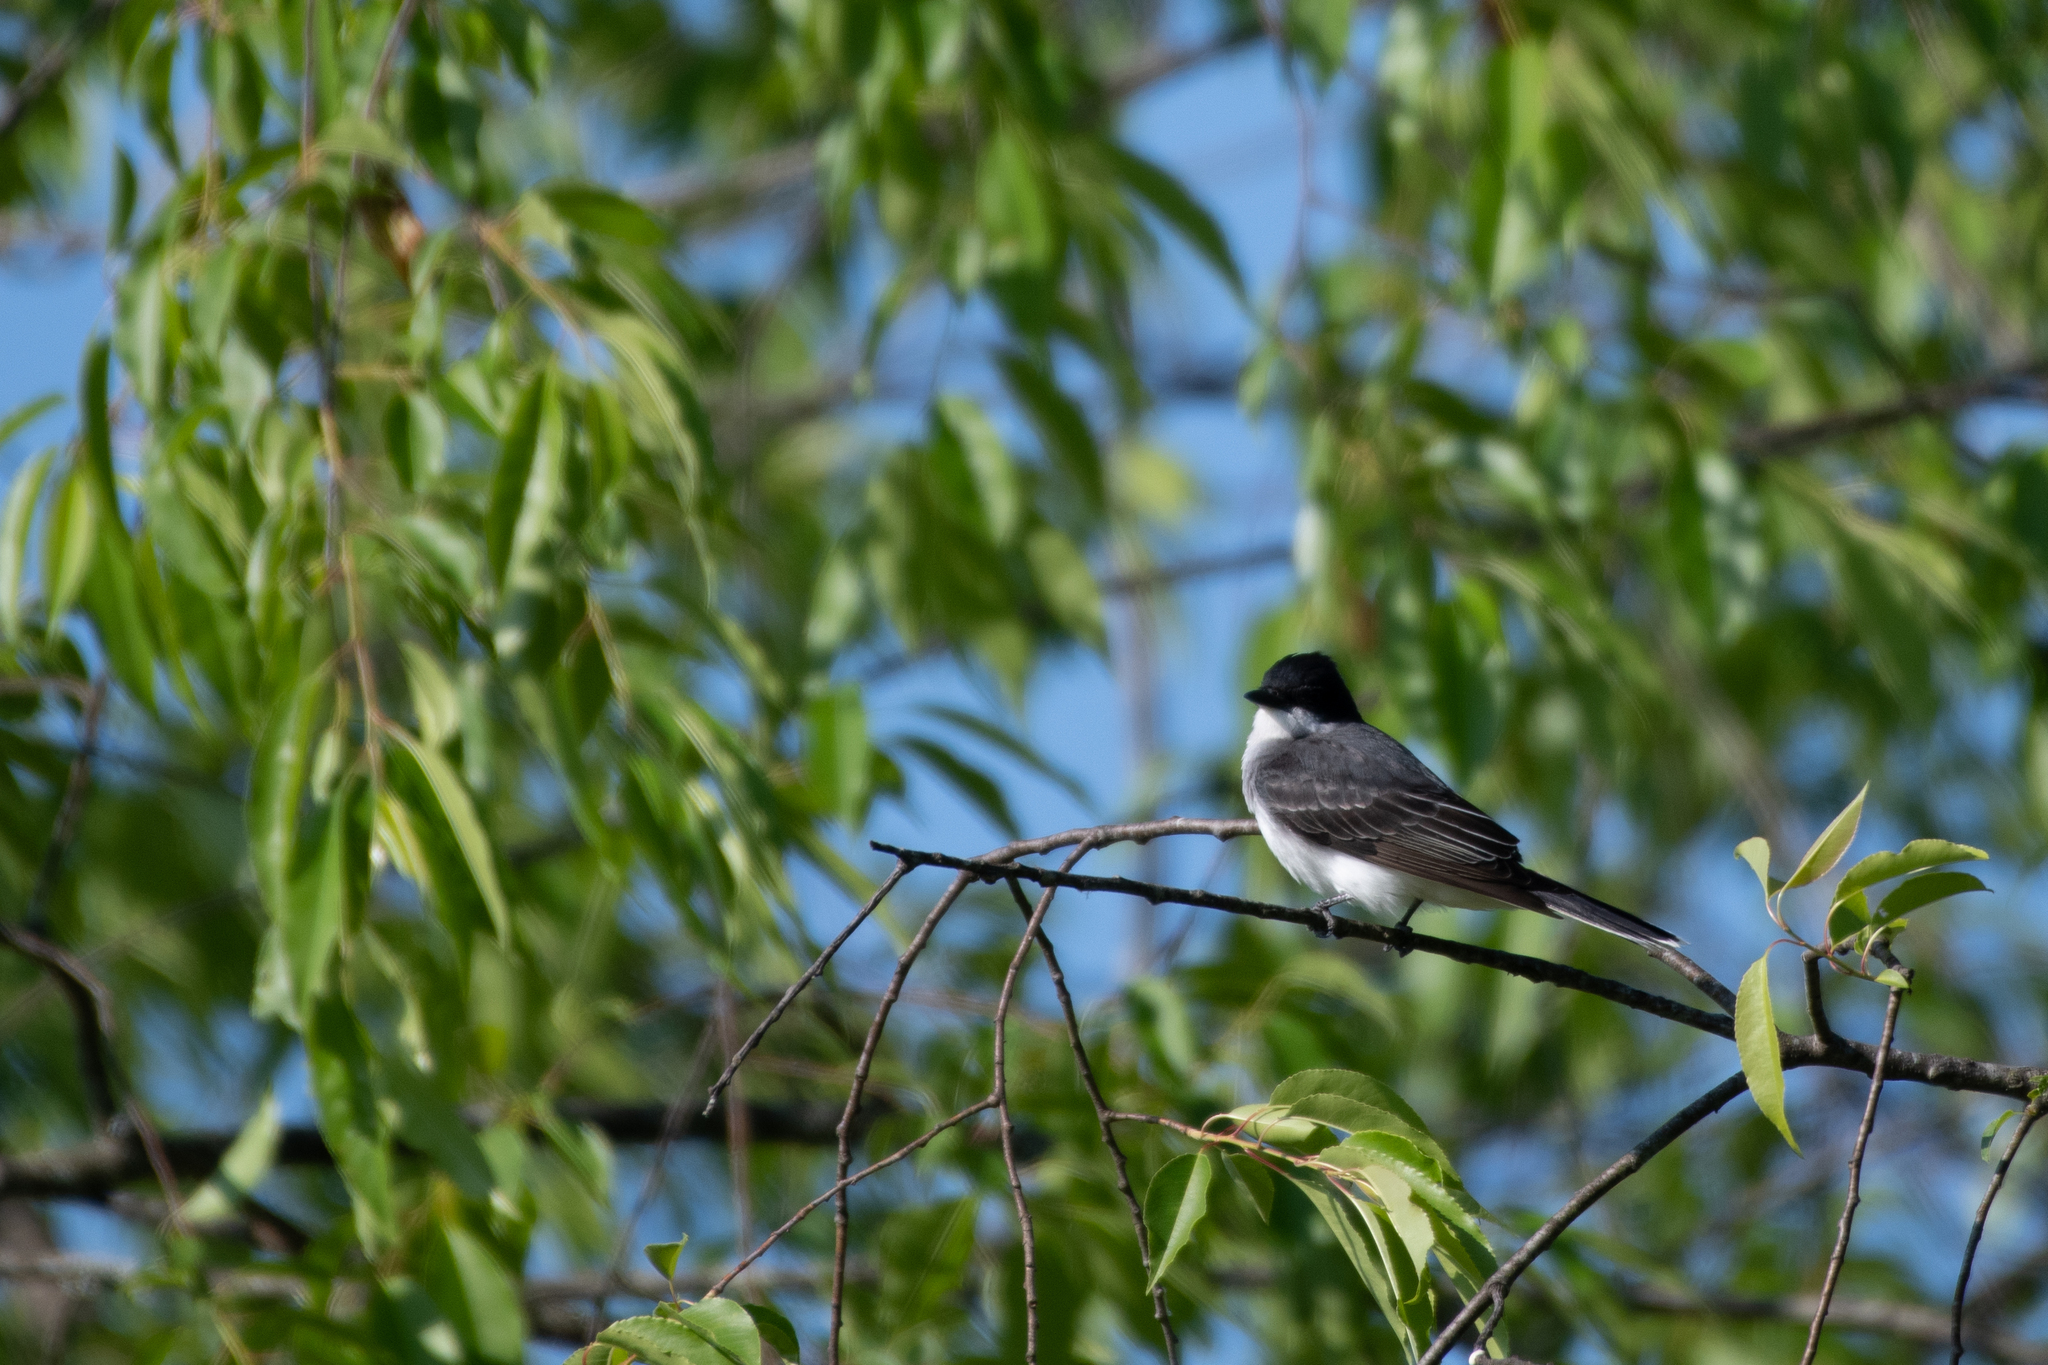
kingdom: Animalia
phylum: Chordata
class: Aves
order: Passeriformes
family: Tyrannidae
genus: Tyrannus
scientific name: Tyrannus tyrannus
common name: Eastern kingbird
